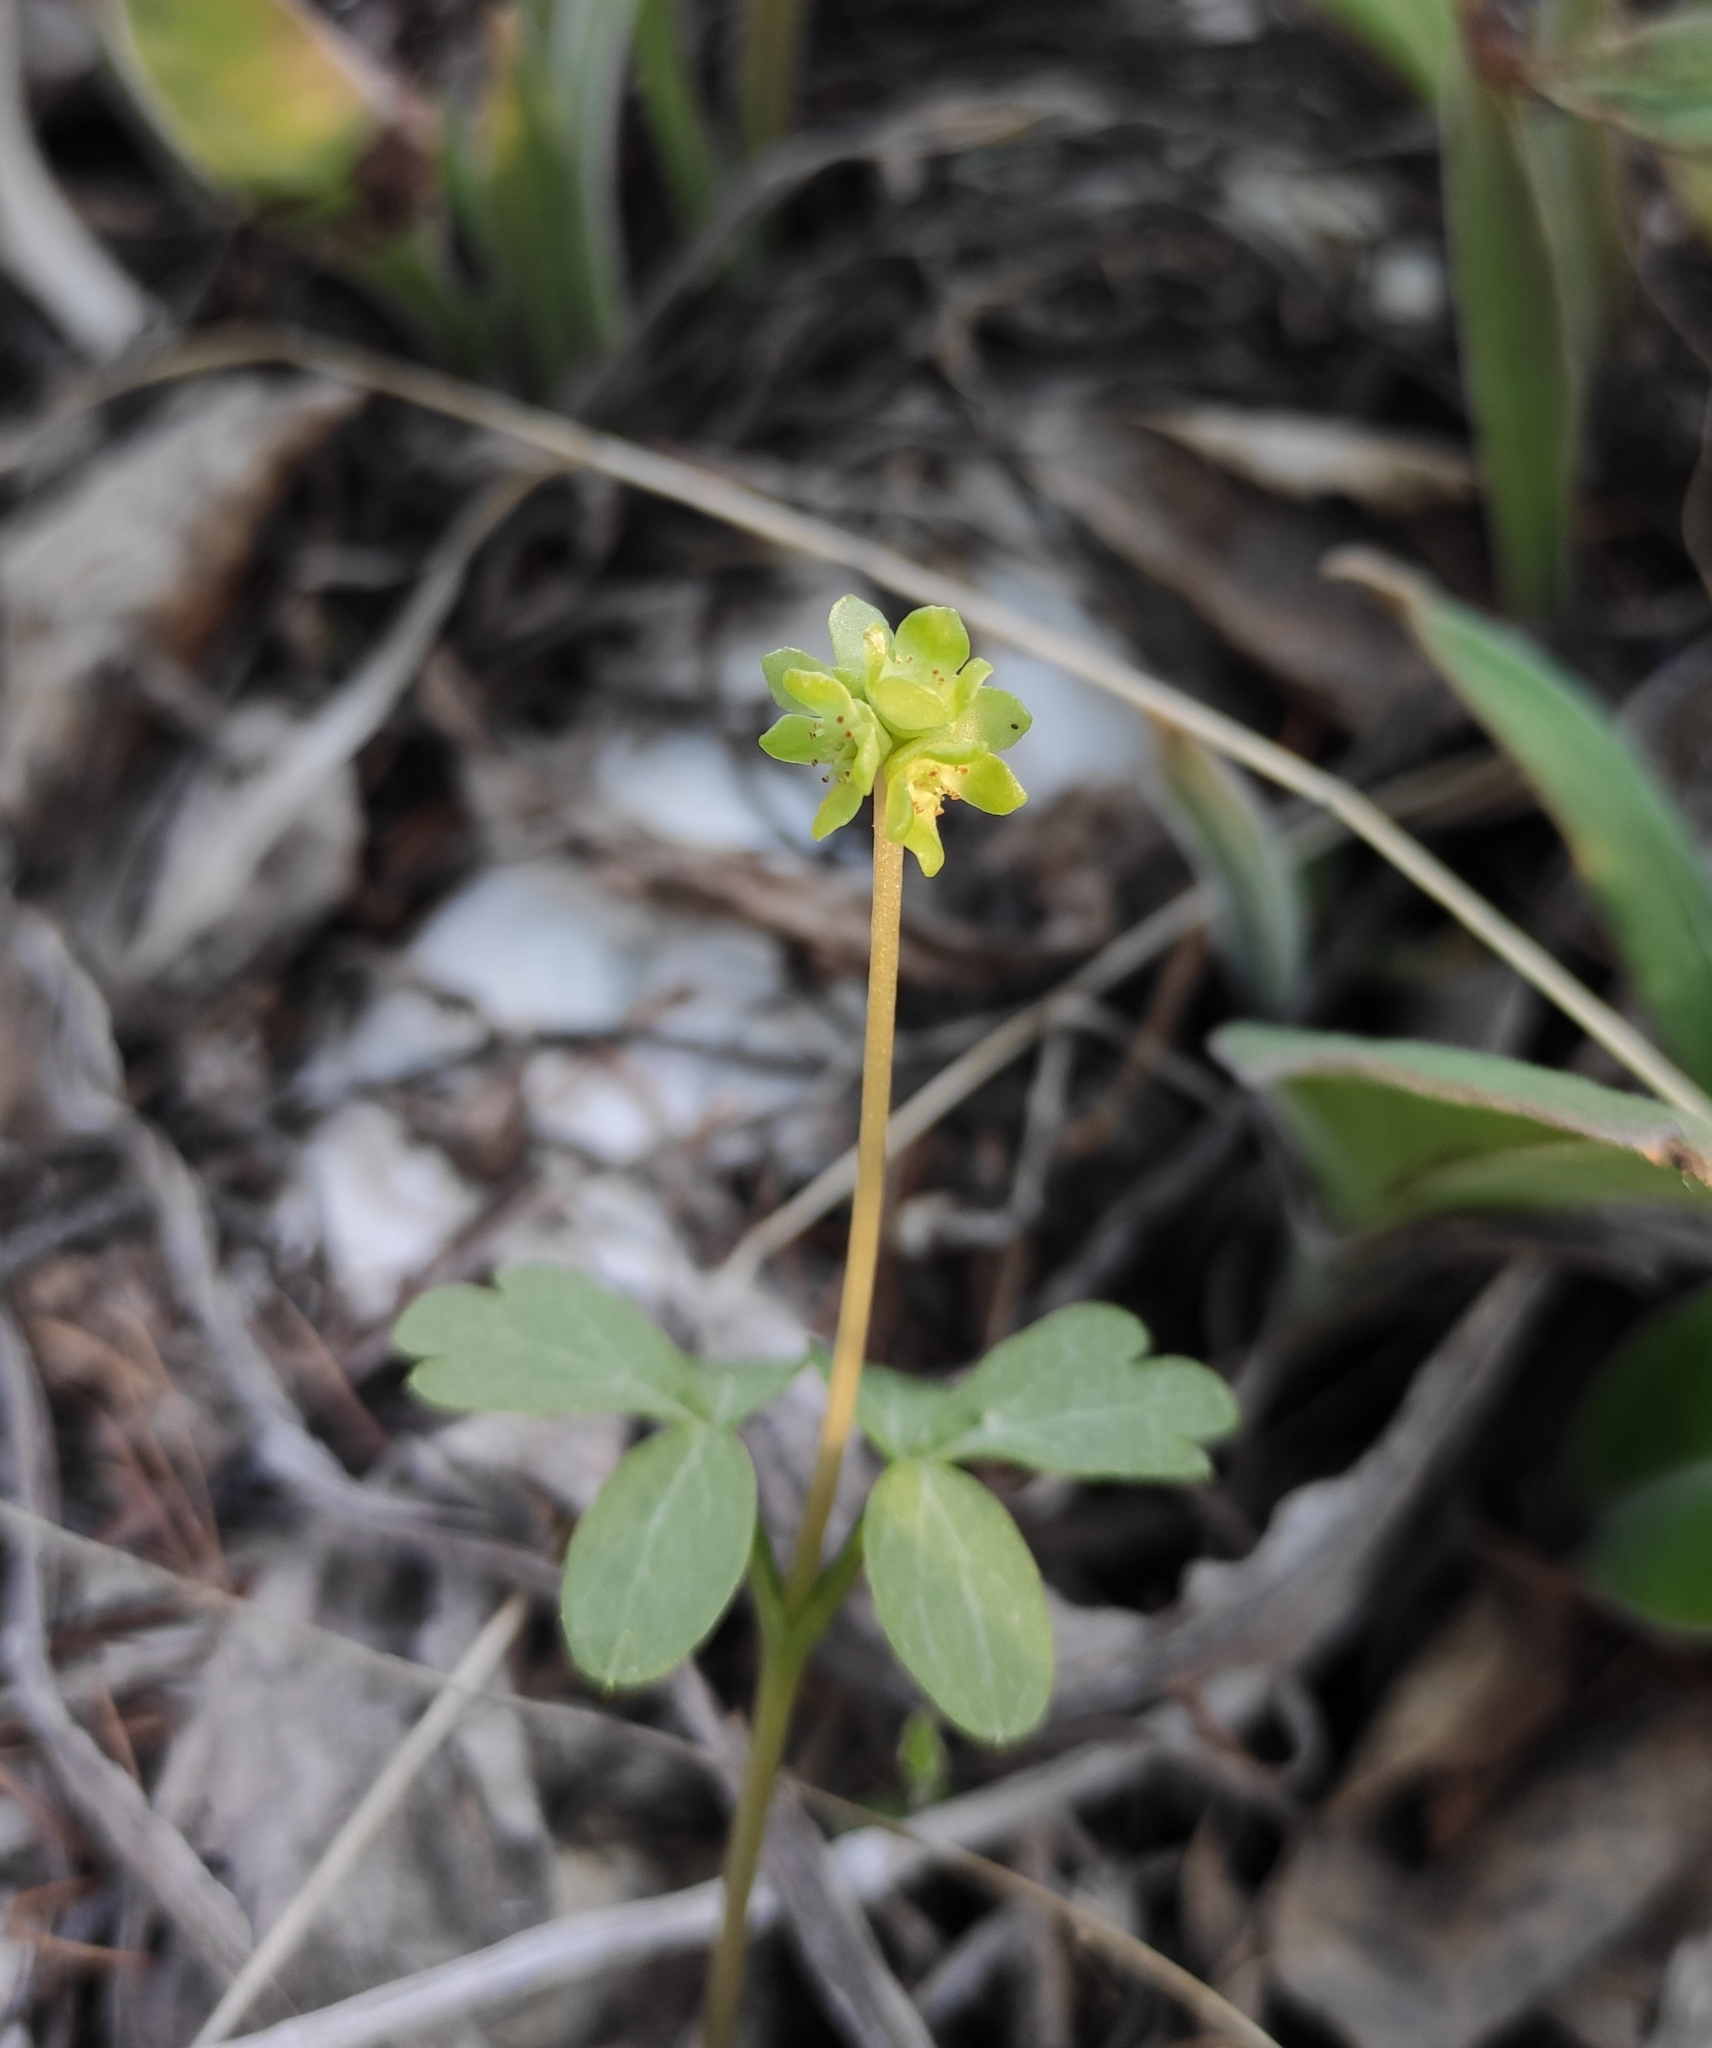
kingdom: Plantae
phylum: Tracheophyta
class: Magnoliopsida
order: Dipsacales
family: Viburnaceae
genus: Adoxa
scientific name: Adoxa moschatellina
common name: Moschatel
